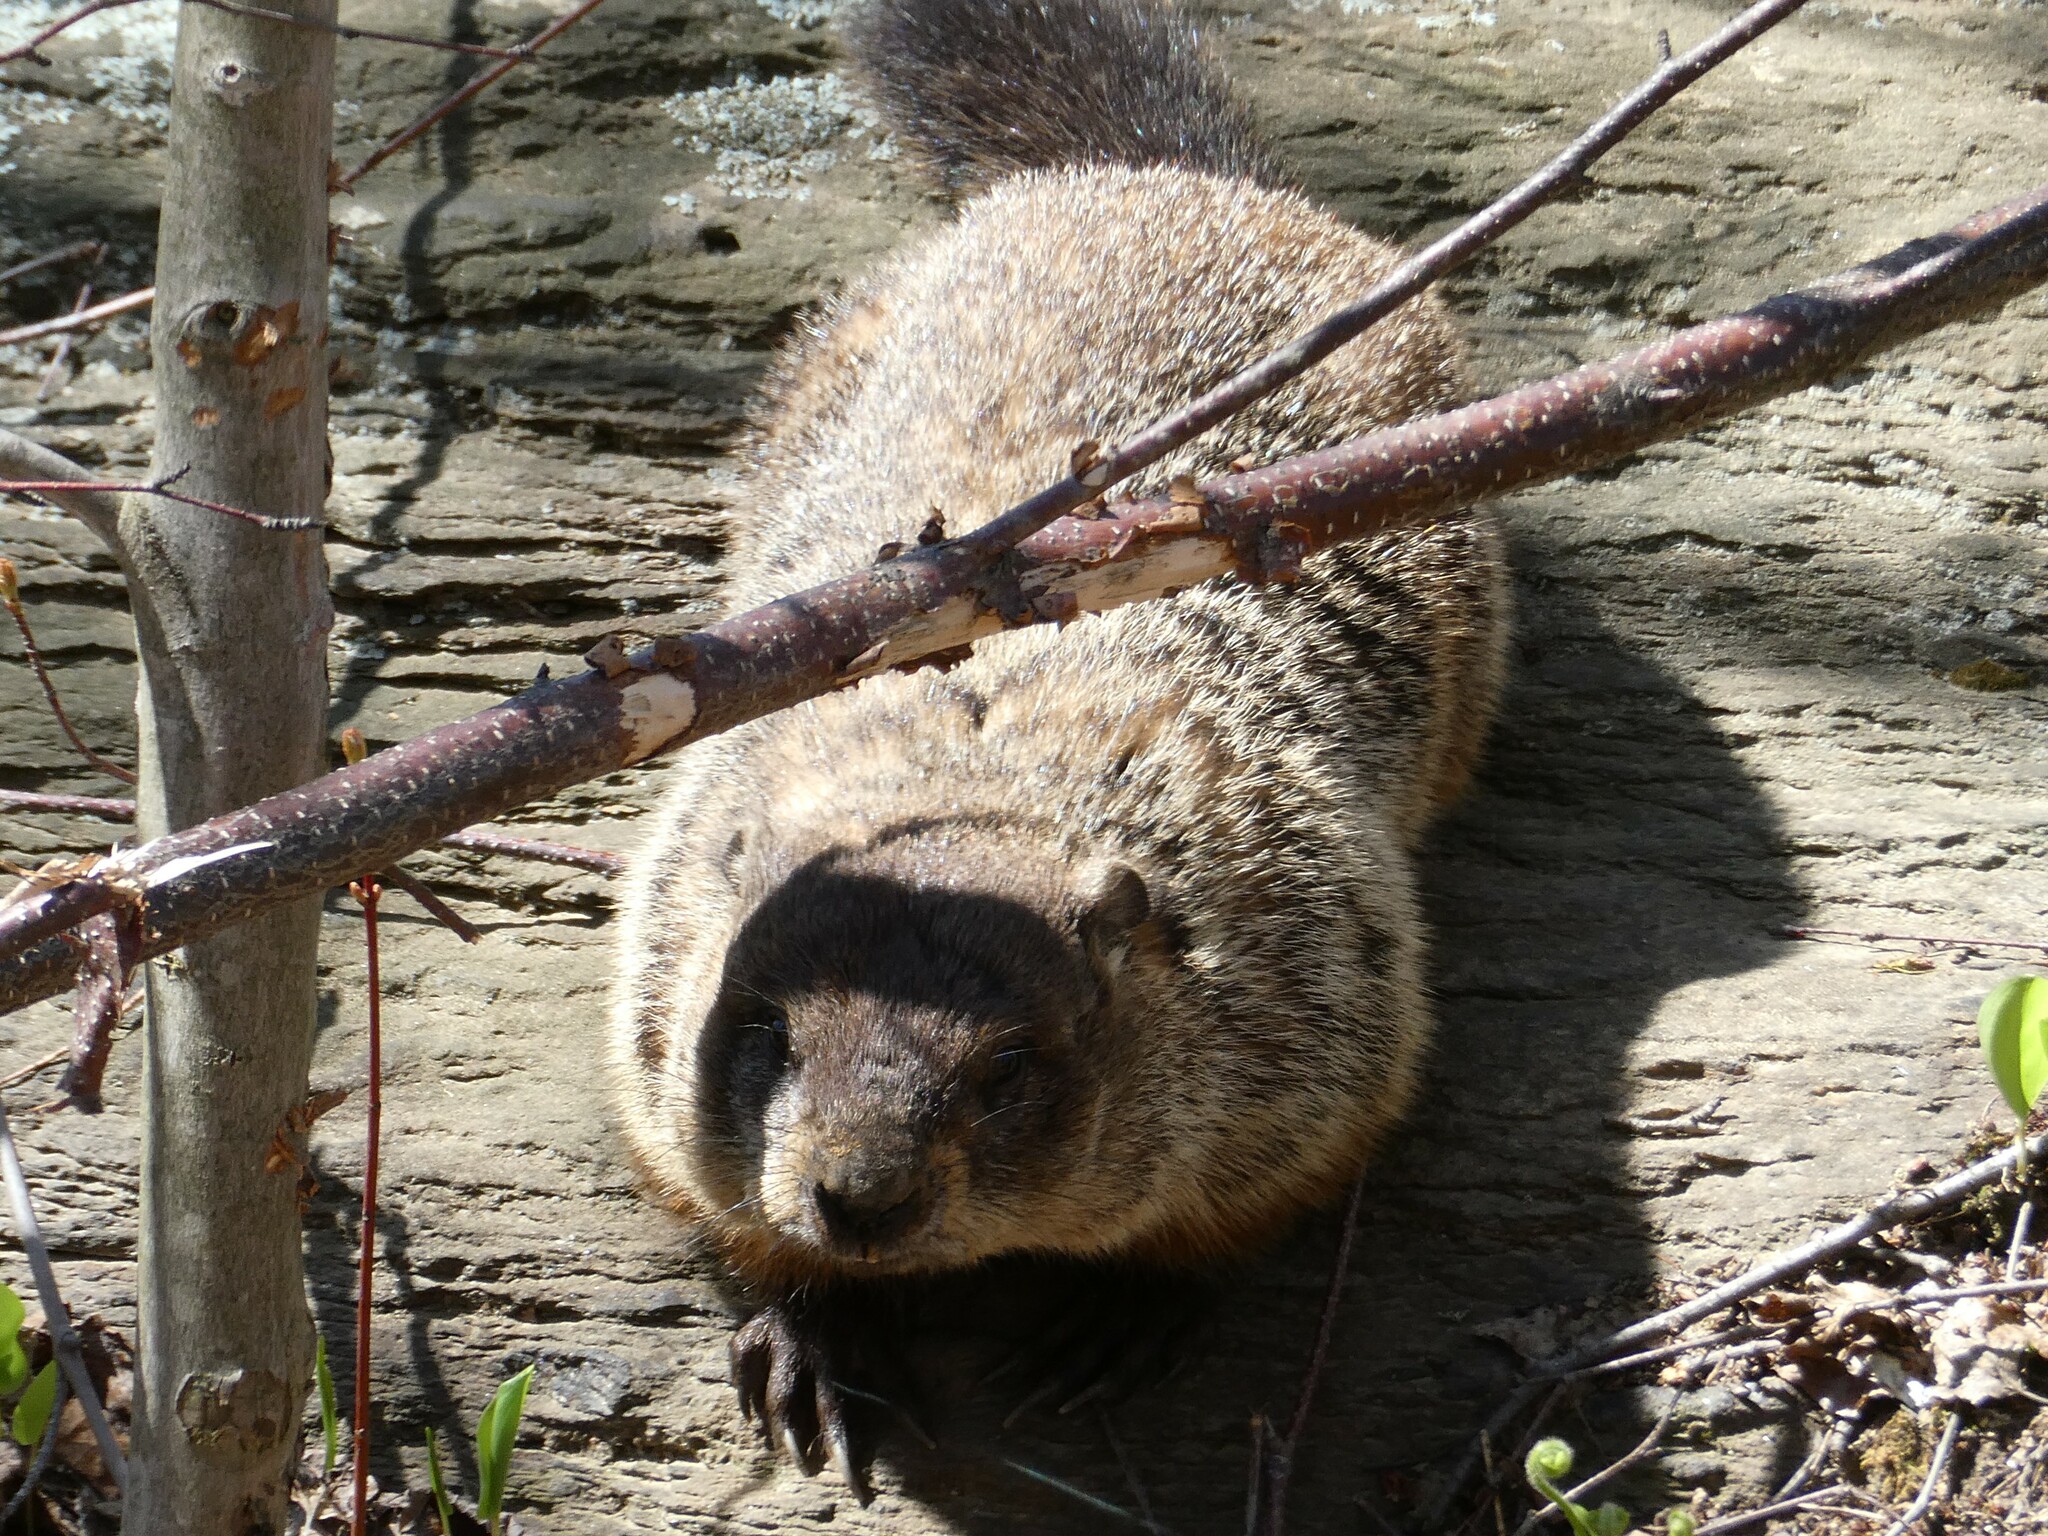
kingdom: Animalia
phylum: Chordata
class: Mammalia
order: Rodentia
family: Sciuridae
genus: Marmota
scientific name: Marmota monax
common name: Groundhog
